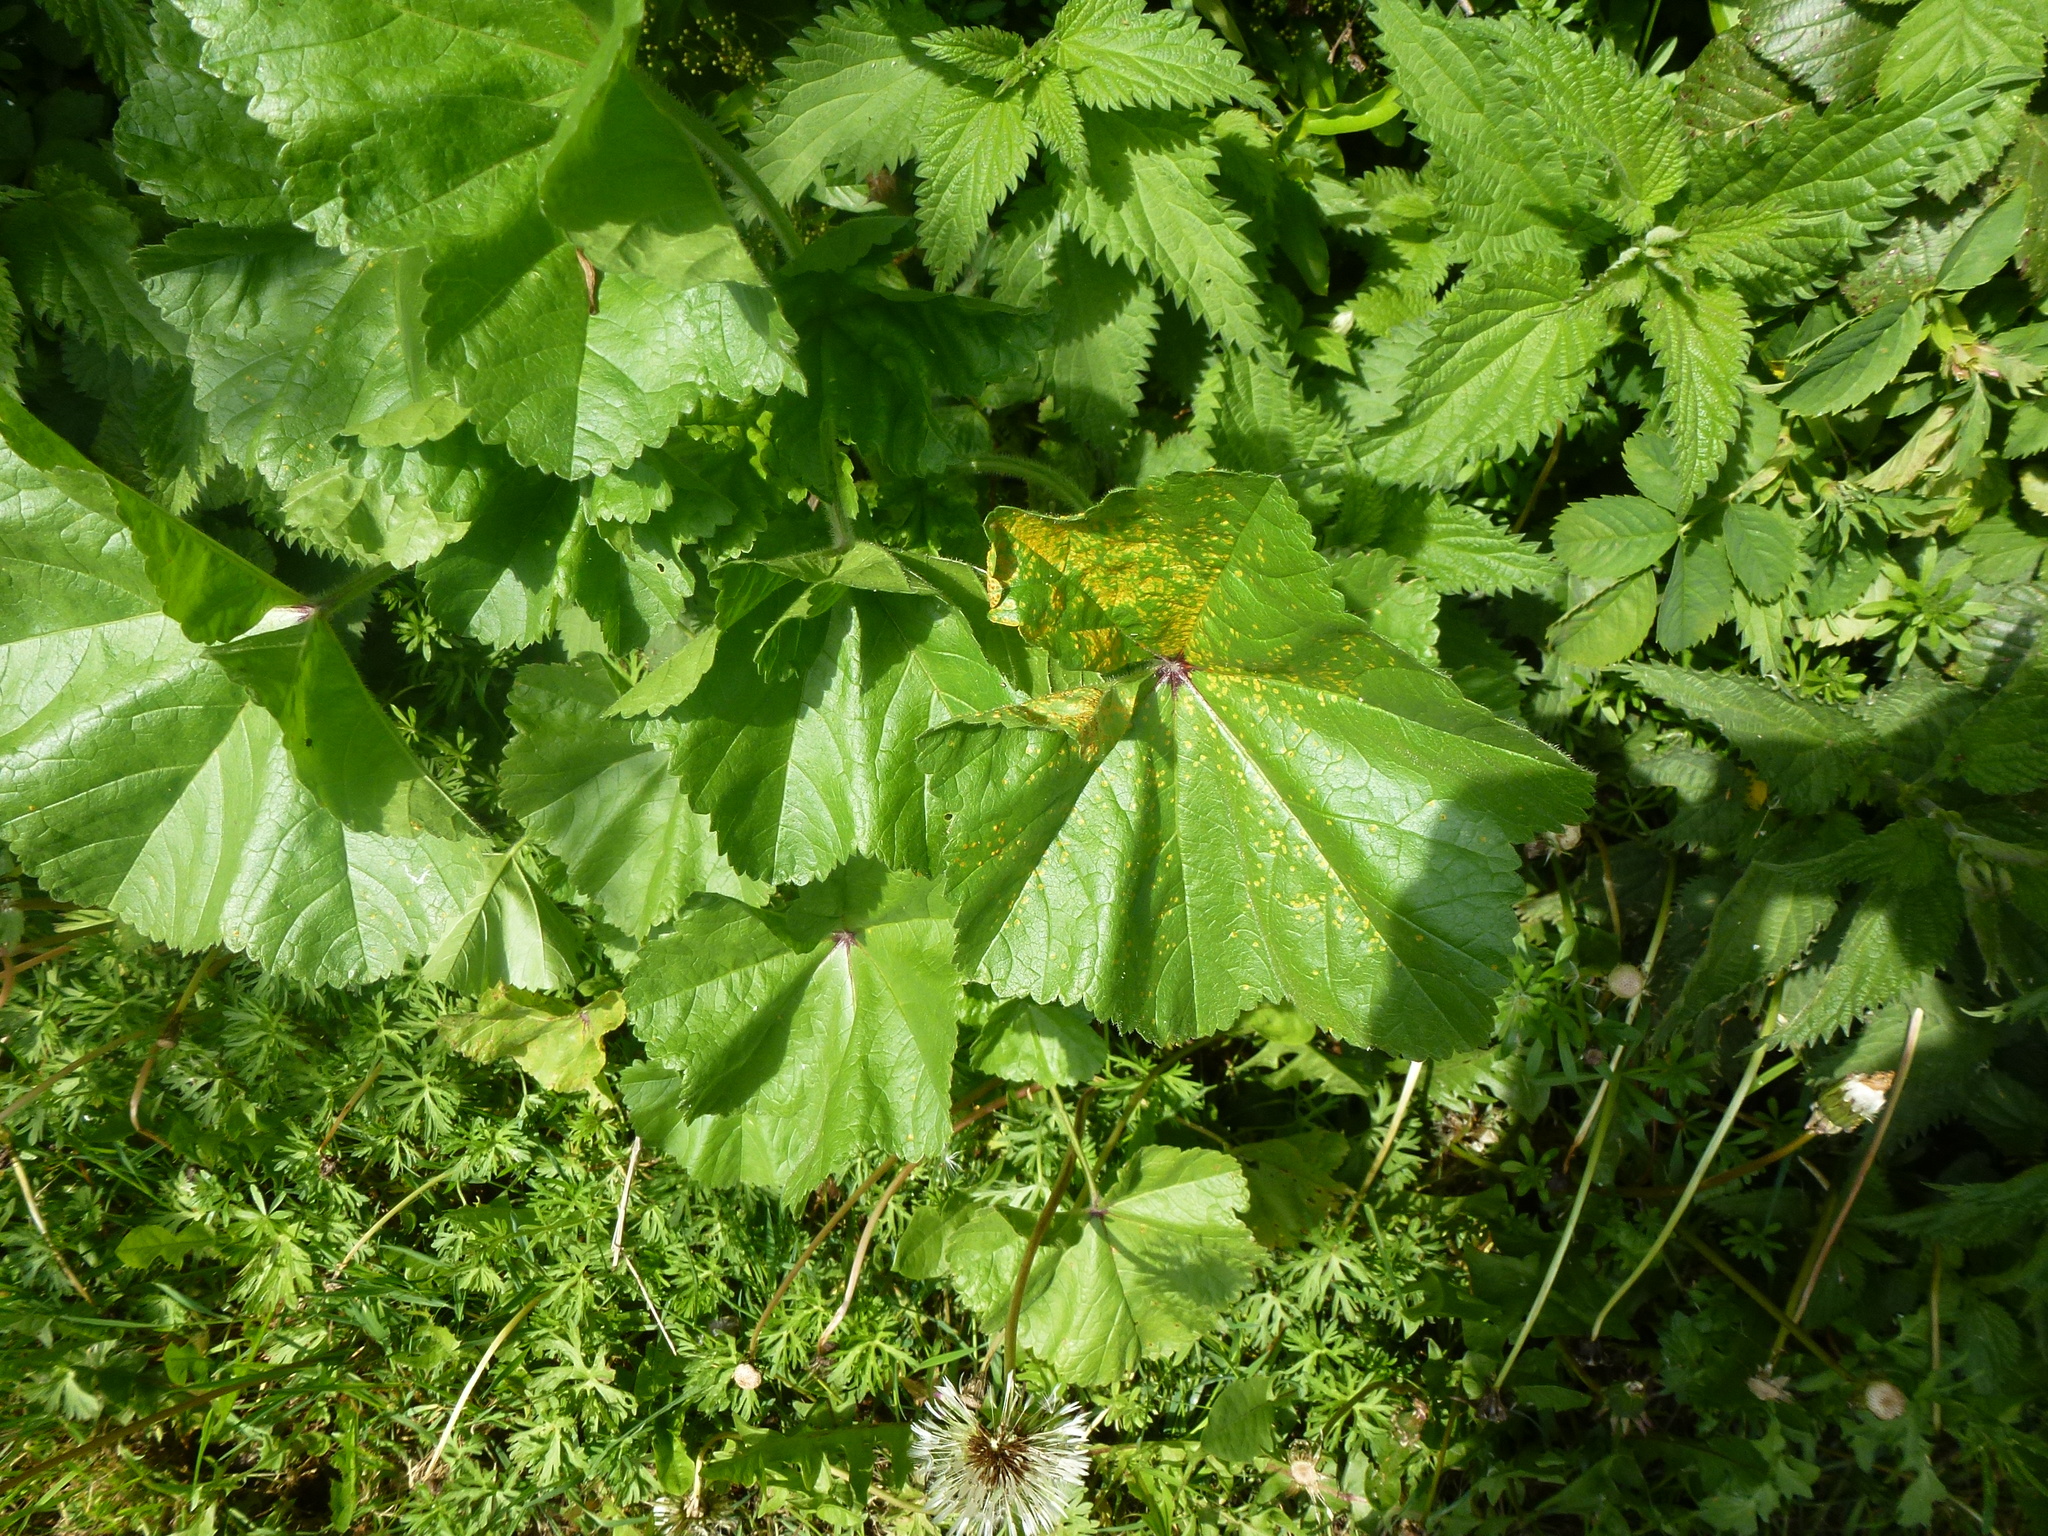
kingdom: Plantae
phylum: Tracheophyta
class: Magnoliopsida
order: Malvales
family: Malvaceae
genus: Malva
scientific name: Malva sylvestris
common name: Common mallow
